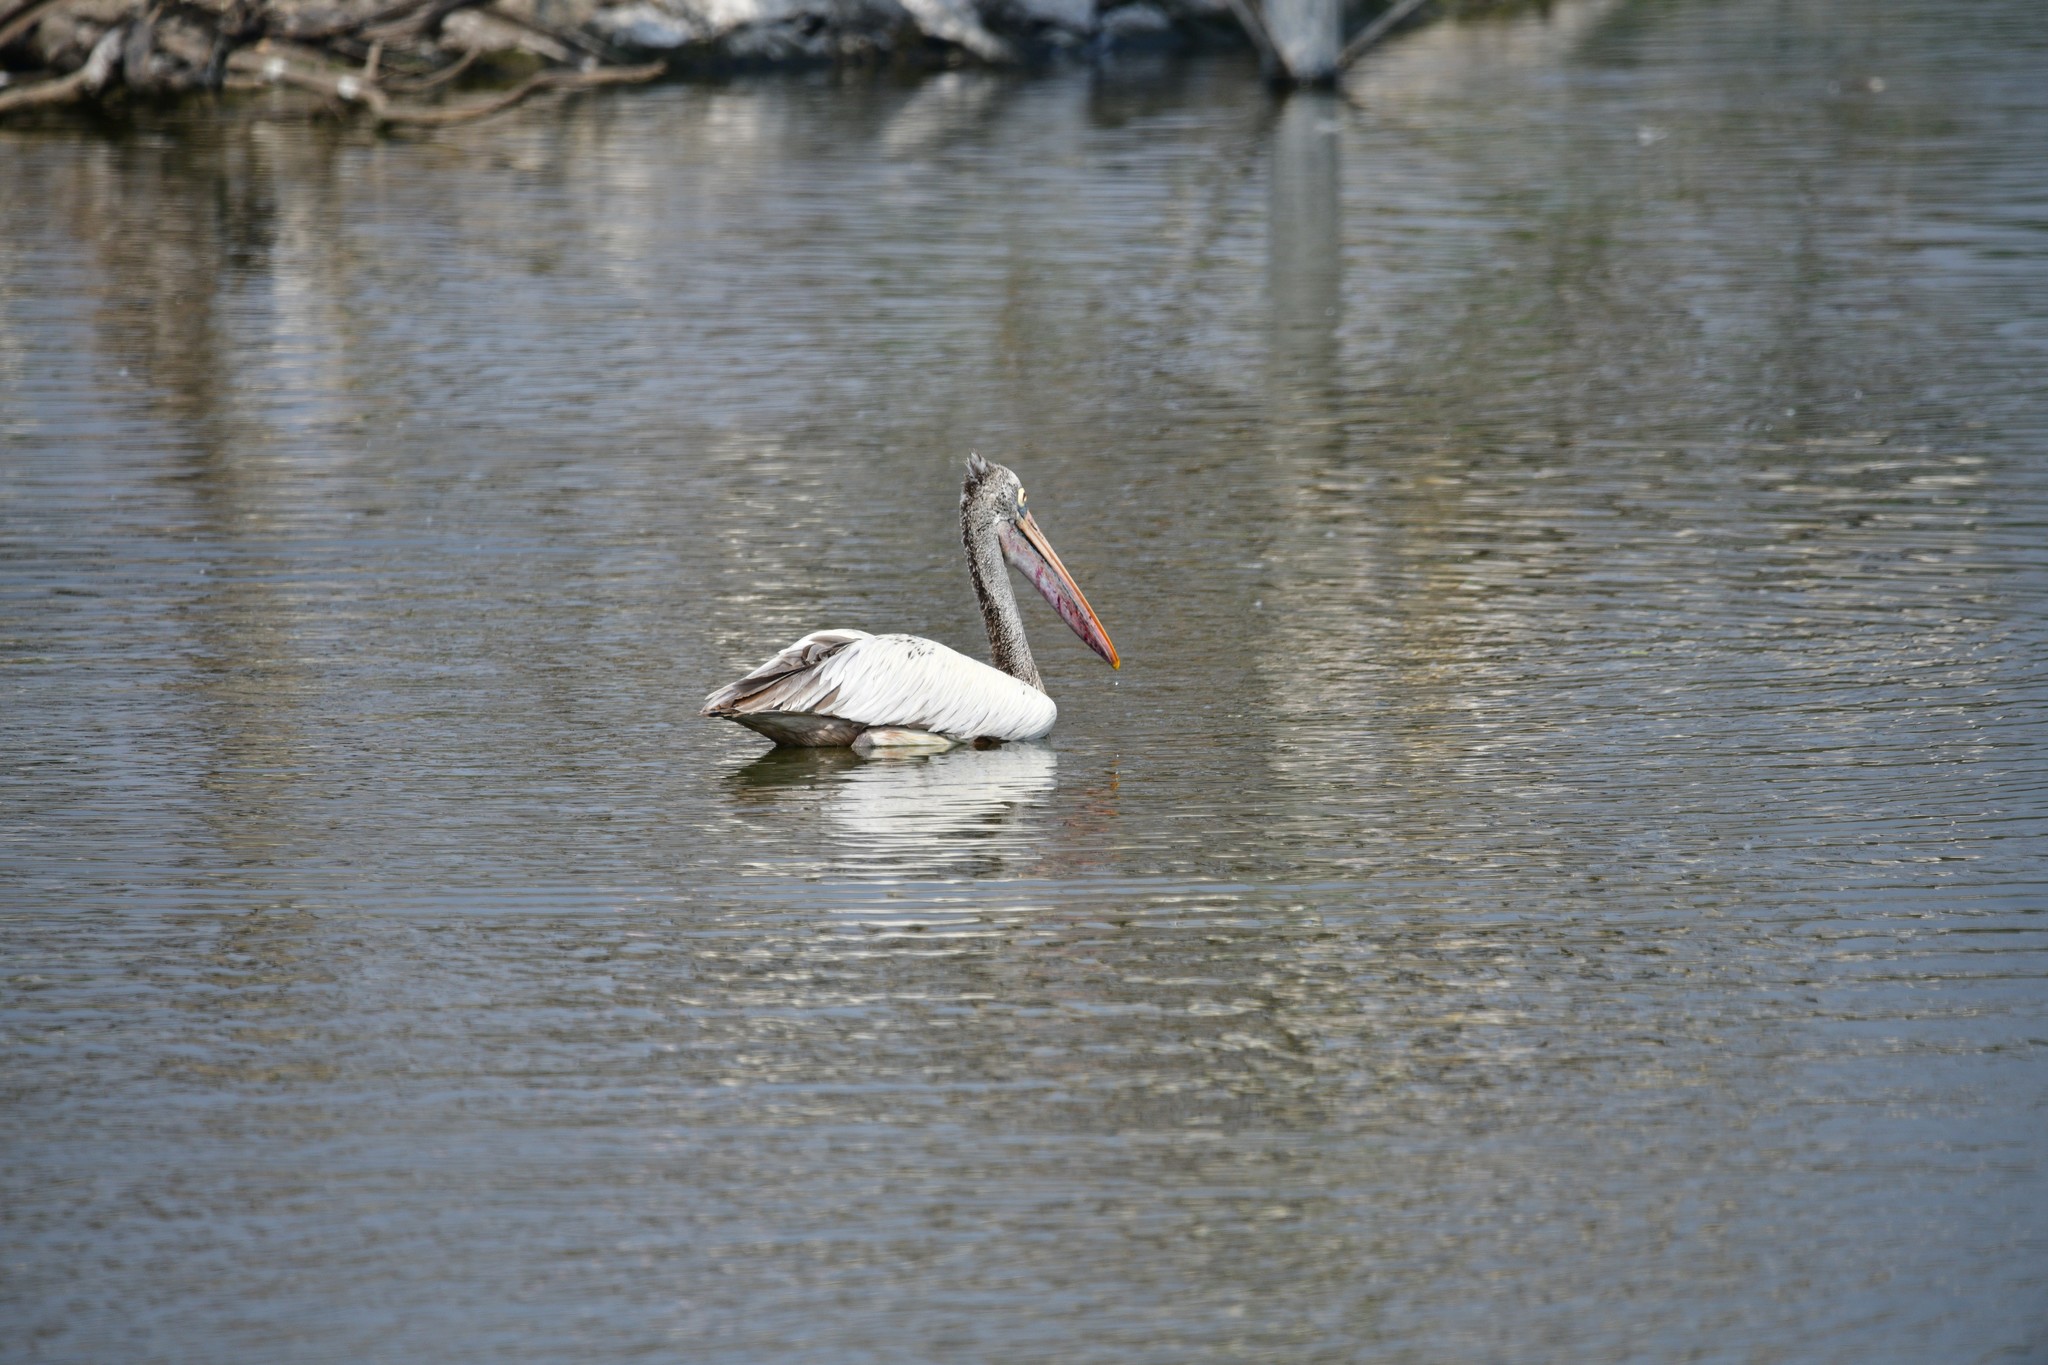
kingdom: Animalia
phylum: Chordata
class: Aves
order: Pelecaniformes
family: Pelecanidae
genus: Pelecanus
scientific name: Pelecanus philippensis
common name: Spot-billed pelican
